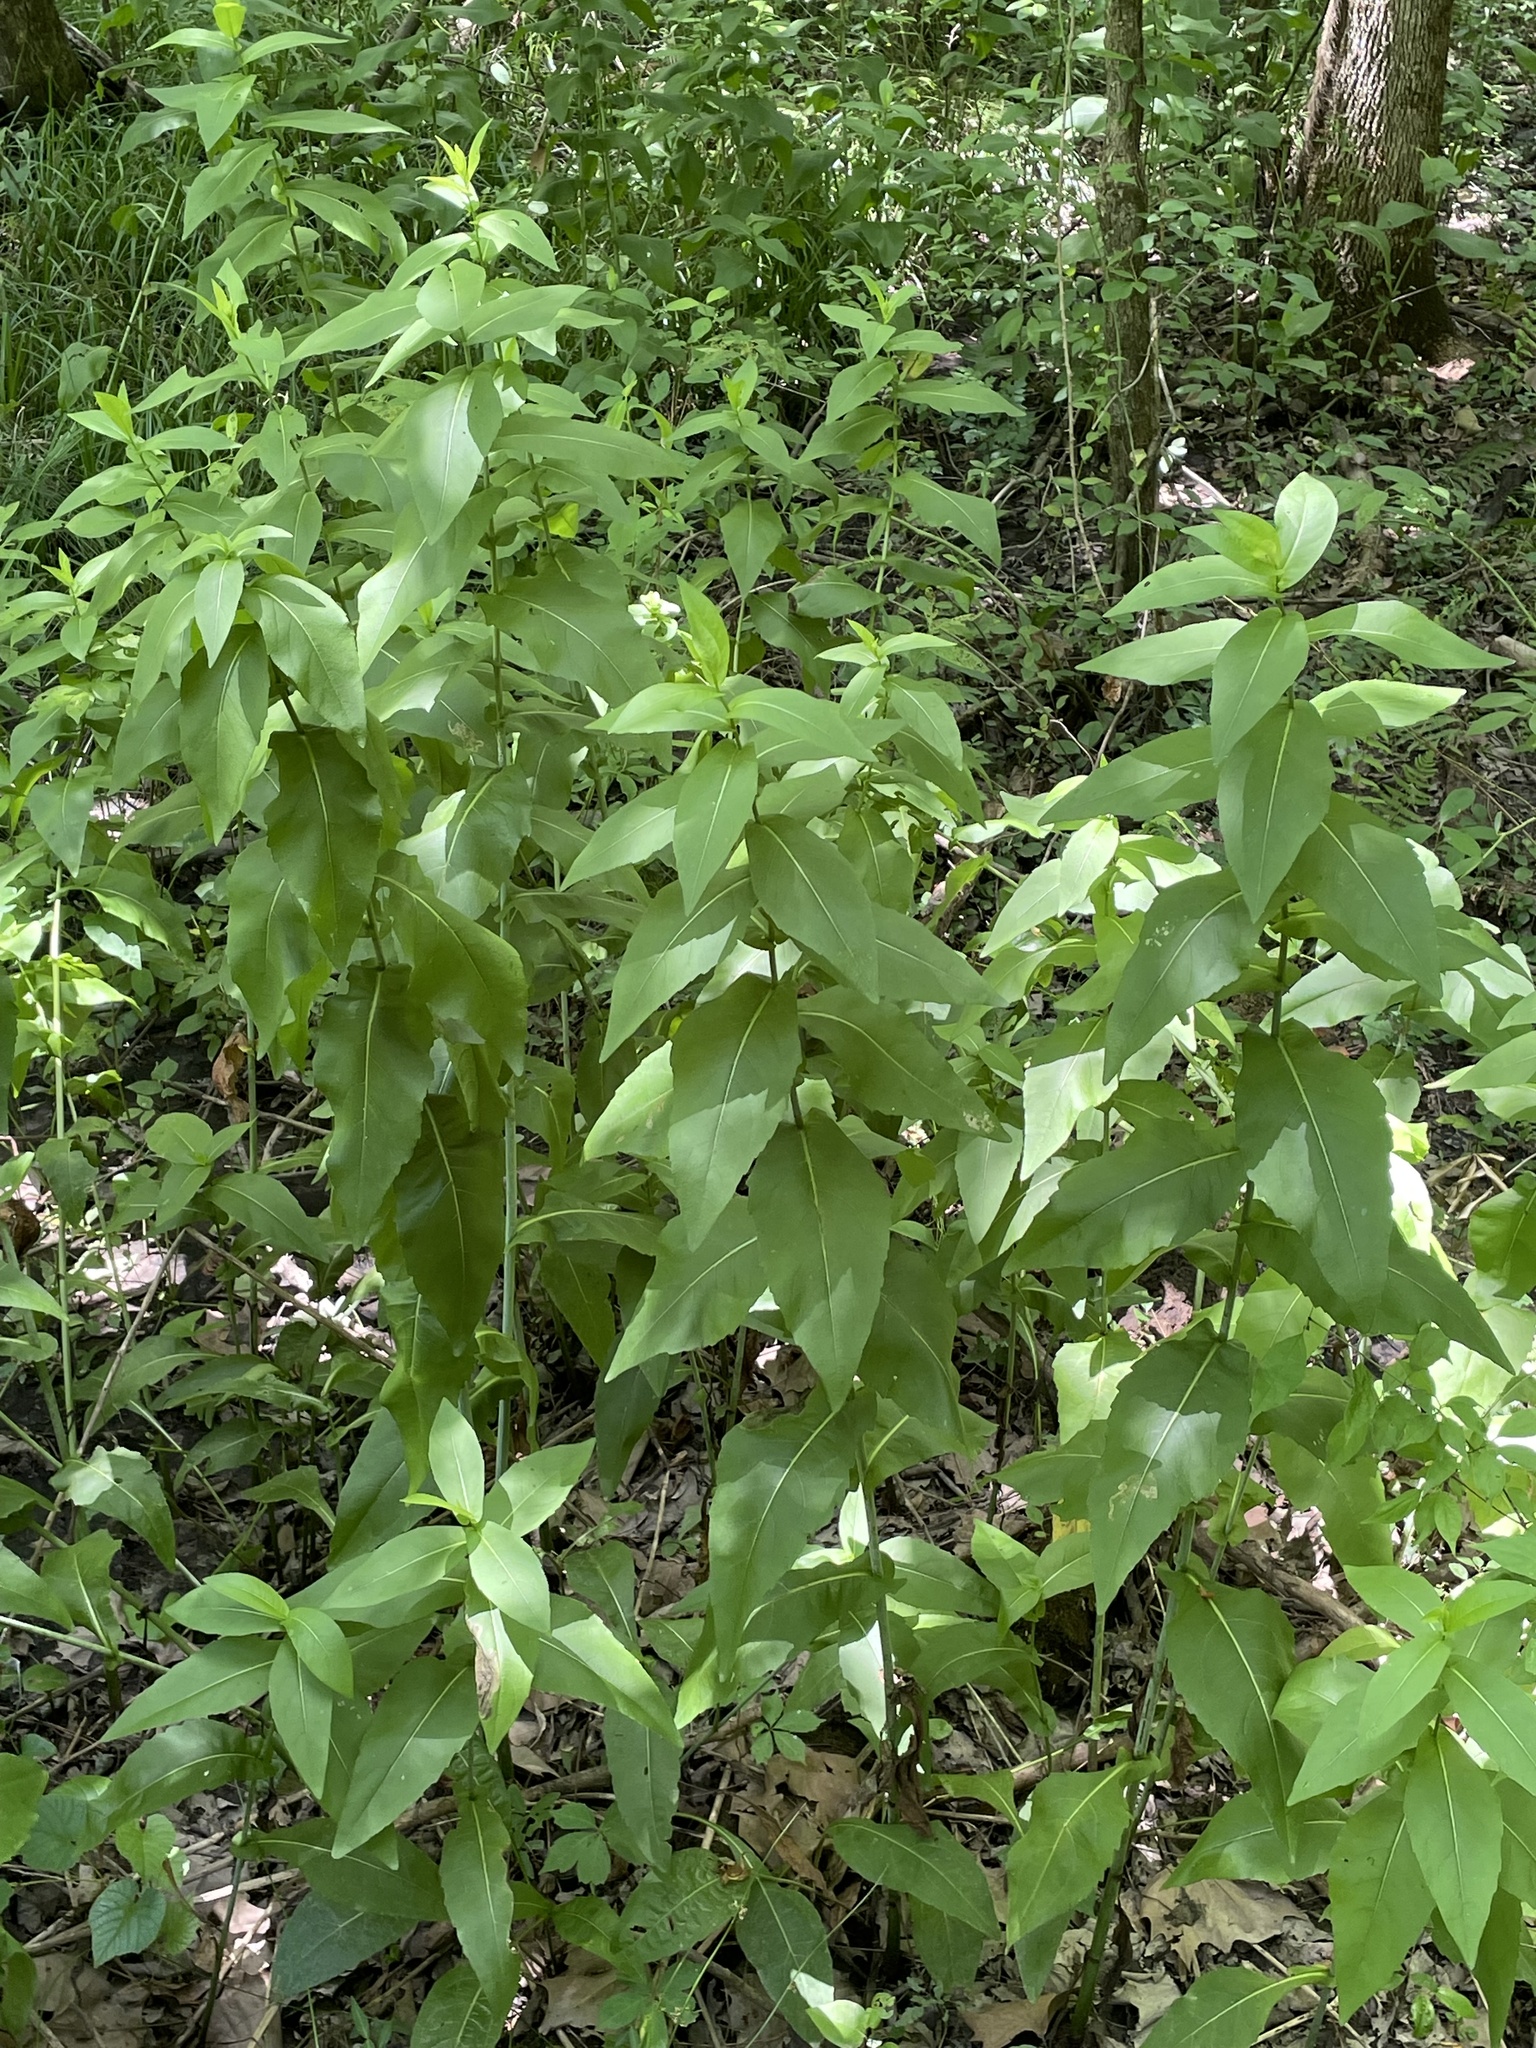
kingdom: Plantae
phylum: Tracheophyta
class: Magnoliopsida
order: Asterales
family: Asteraceae
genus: Rudbeckia
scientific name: Rudbeckia auriculata
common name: Eared coneflower
